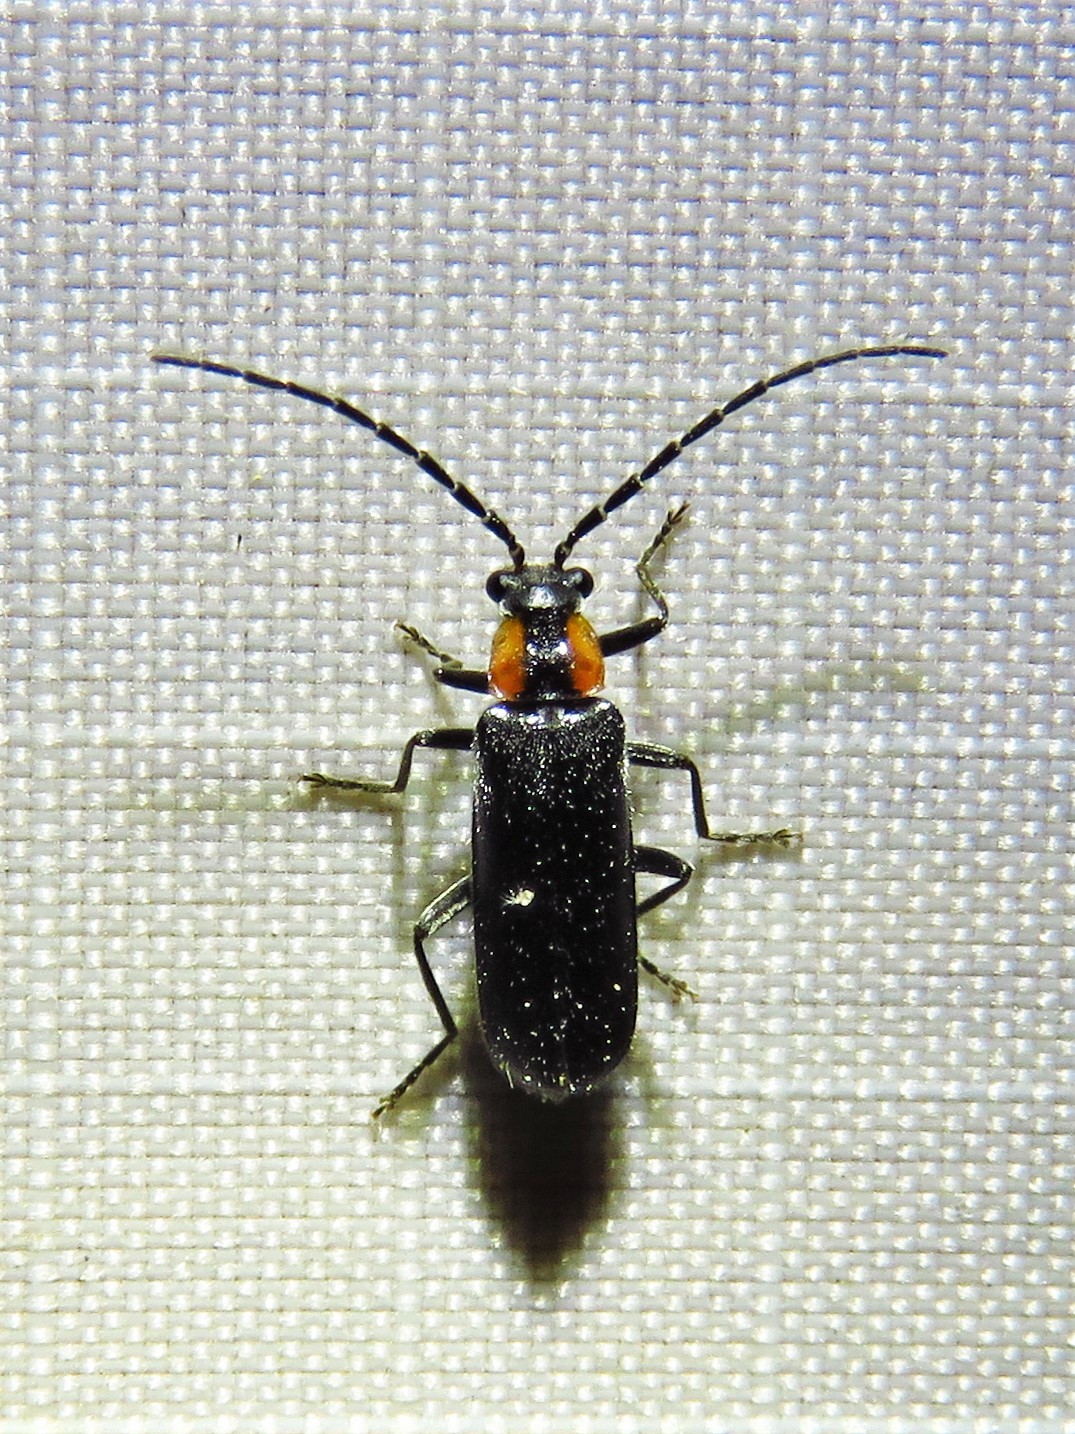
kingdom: Animalia
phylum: Arthropoda
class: Insecta
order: Coleoptera
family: Cantharidae
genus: Rhagonycha
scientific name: Rhagonycha lineola
